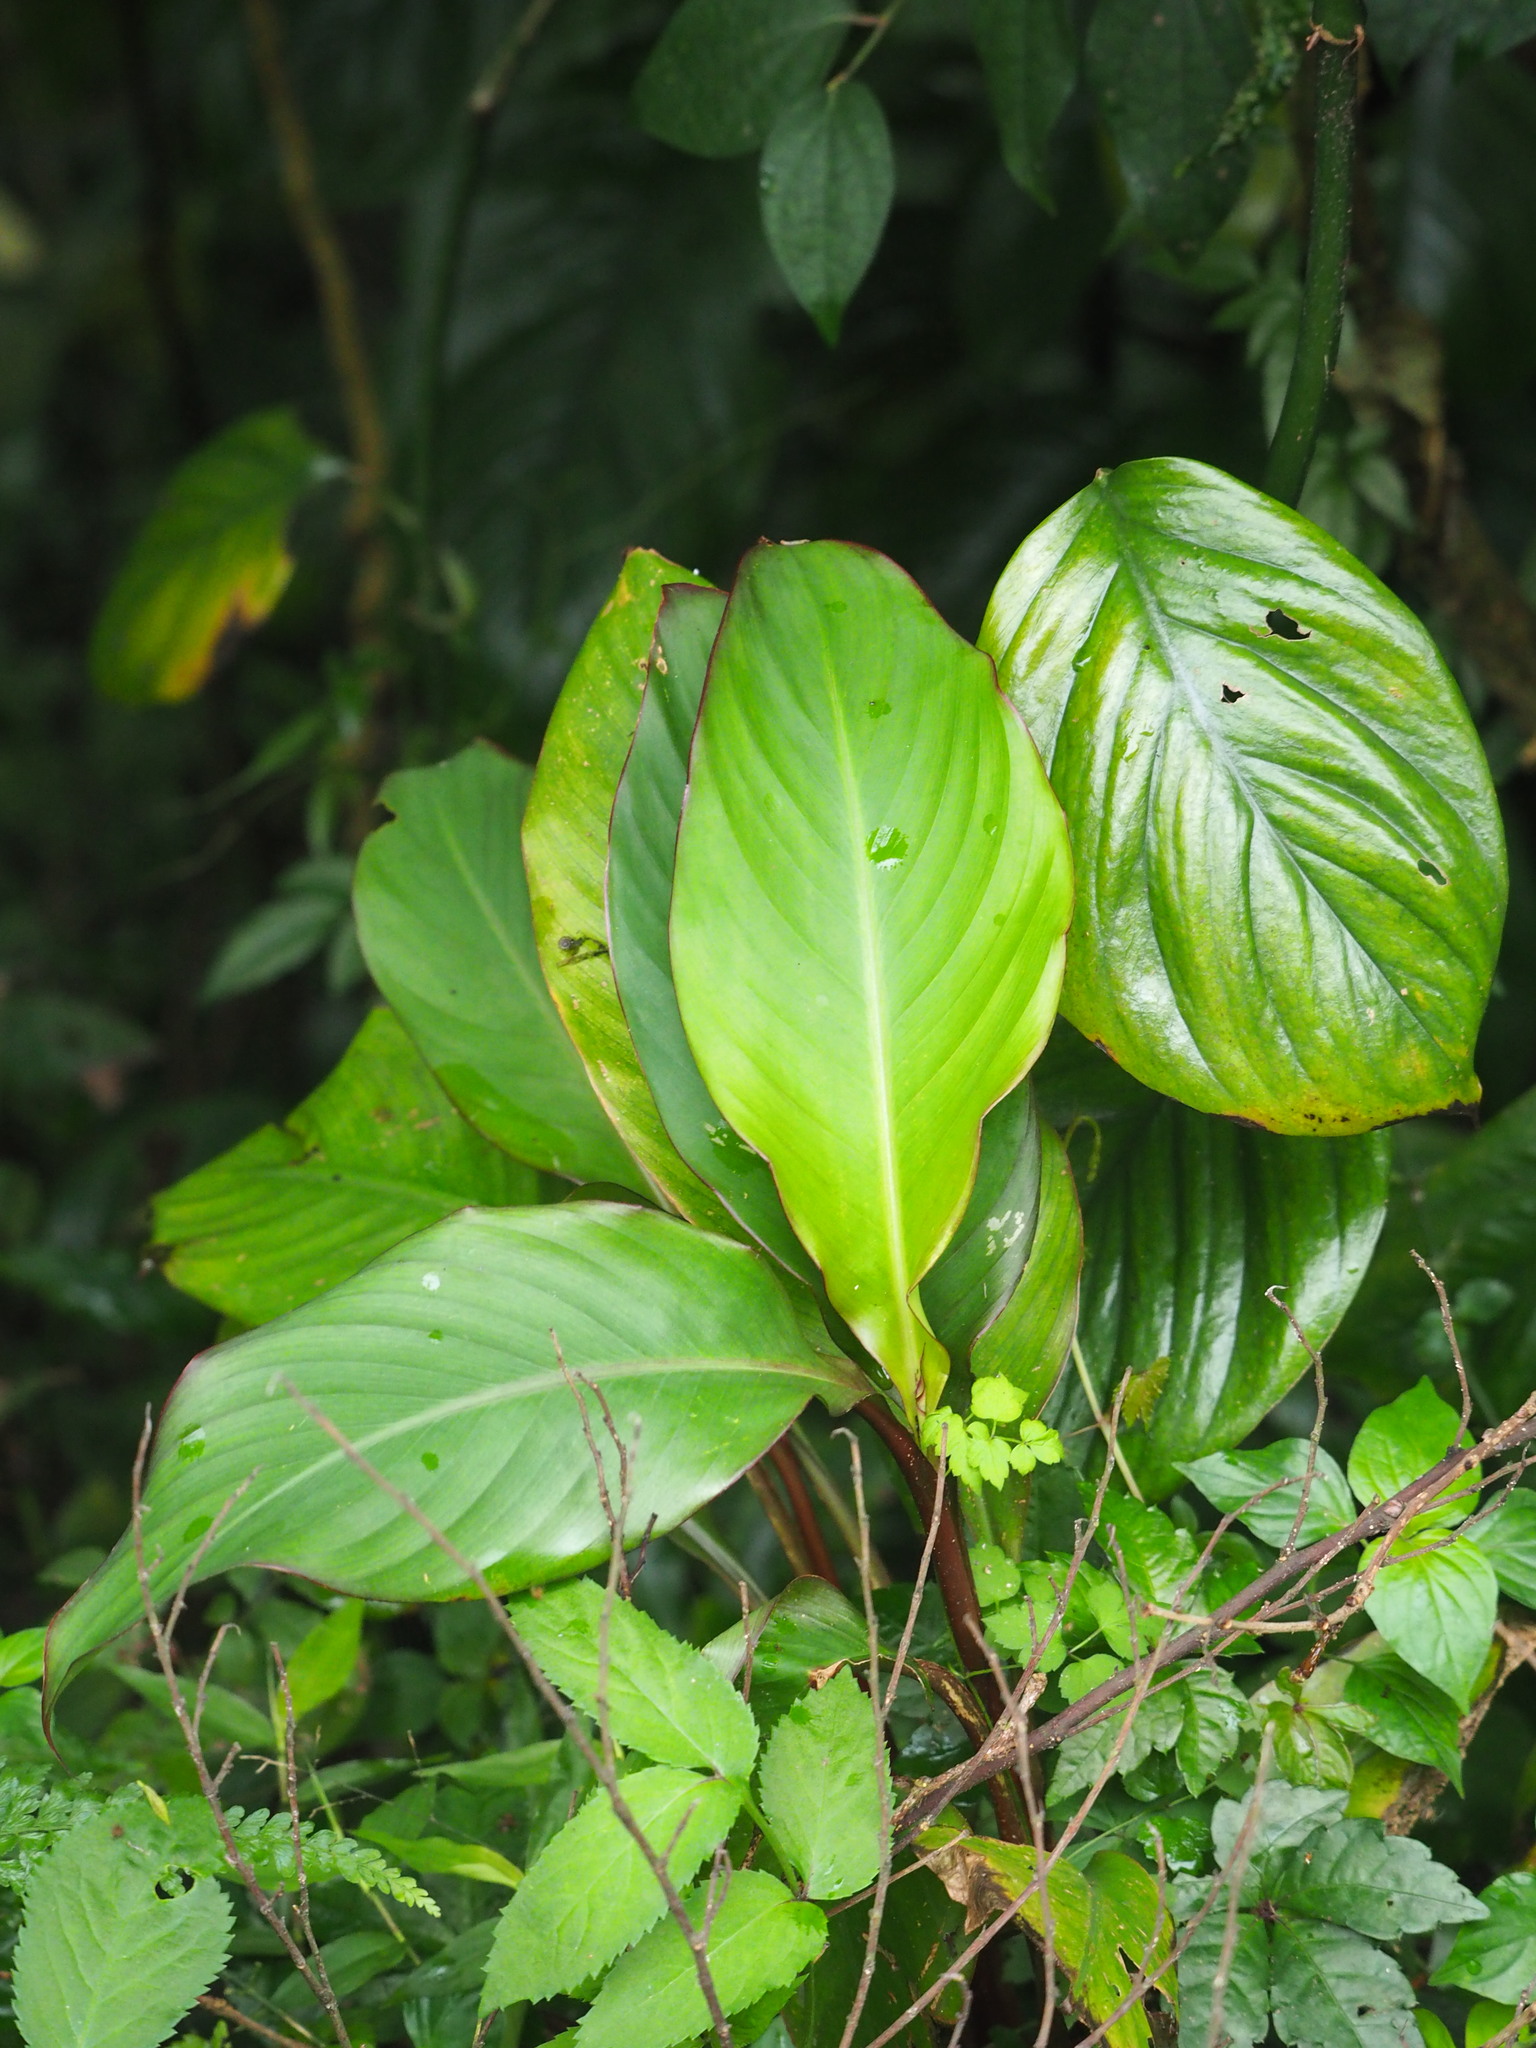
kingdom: Plantae
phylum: Tracheophyta
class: Liliopsida
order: Zingiberales
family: Cannaceae
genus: Canna
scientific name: Canna indica
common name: Indian shot
